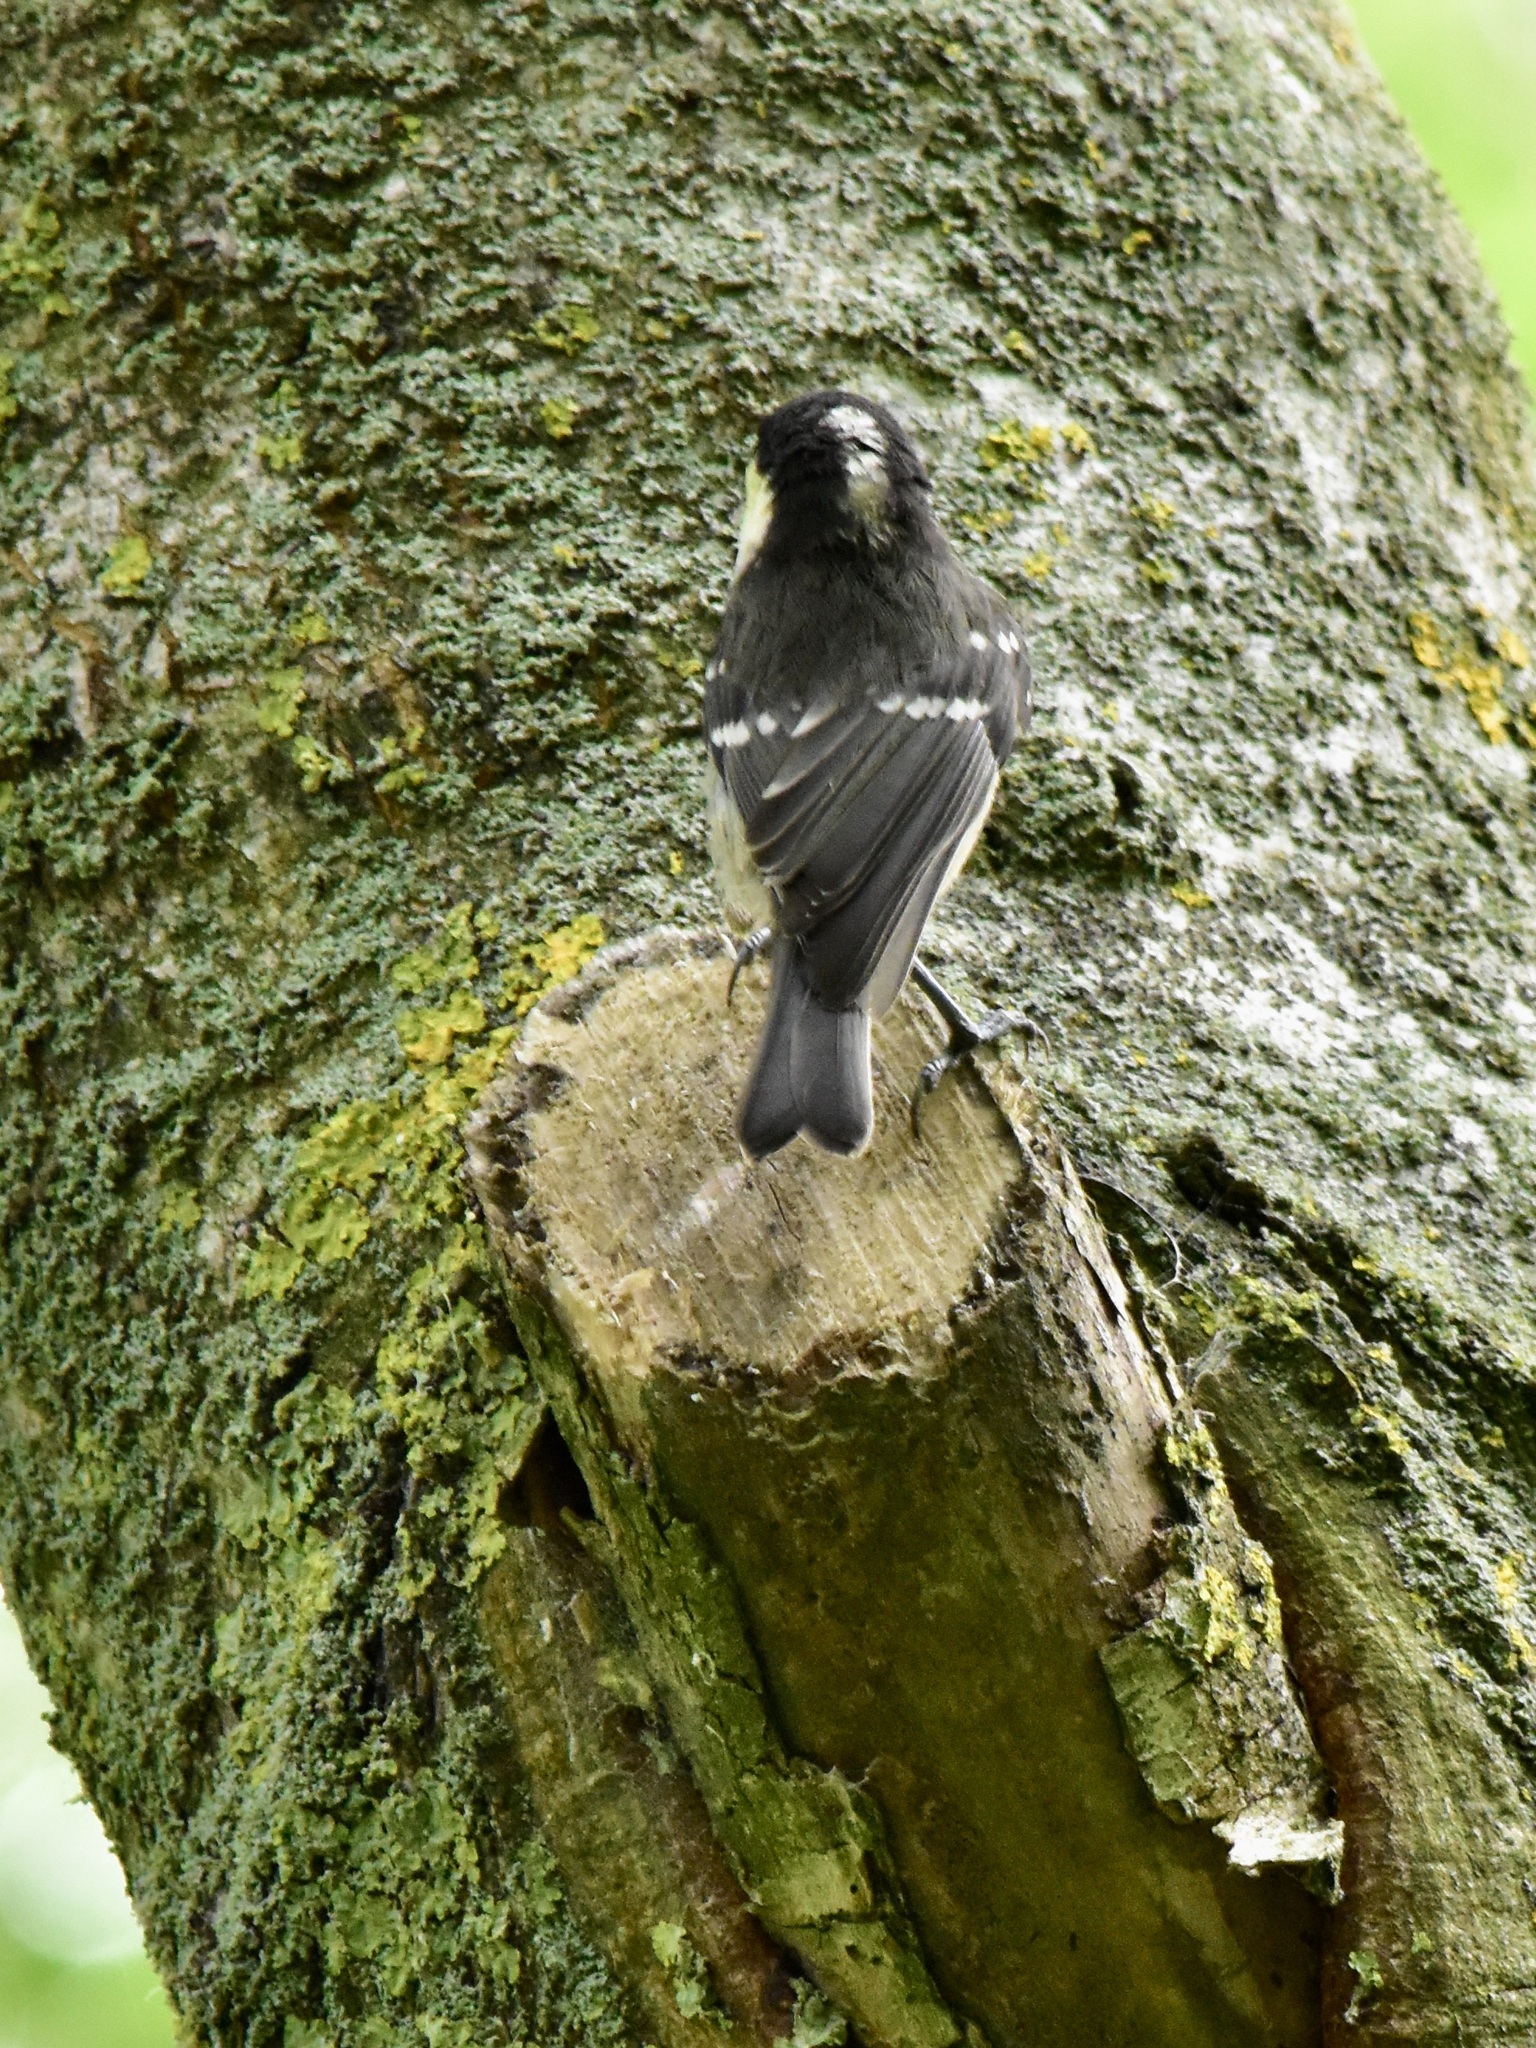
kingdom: Animalia
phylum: Chordata
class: Aves
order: Passeriformes
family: Paridae
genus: Periparus
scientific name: Periparus ater
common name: Coal tit
